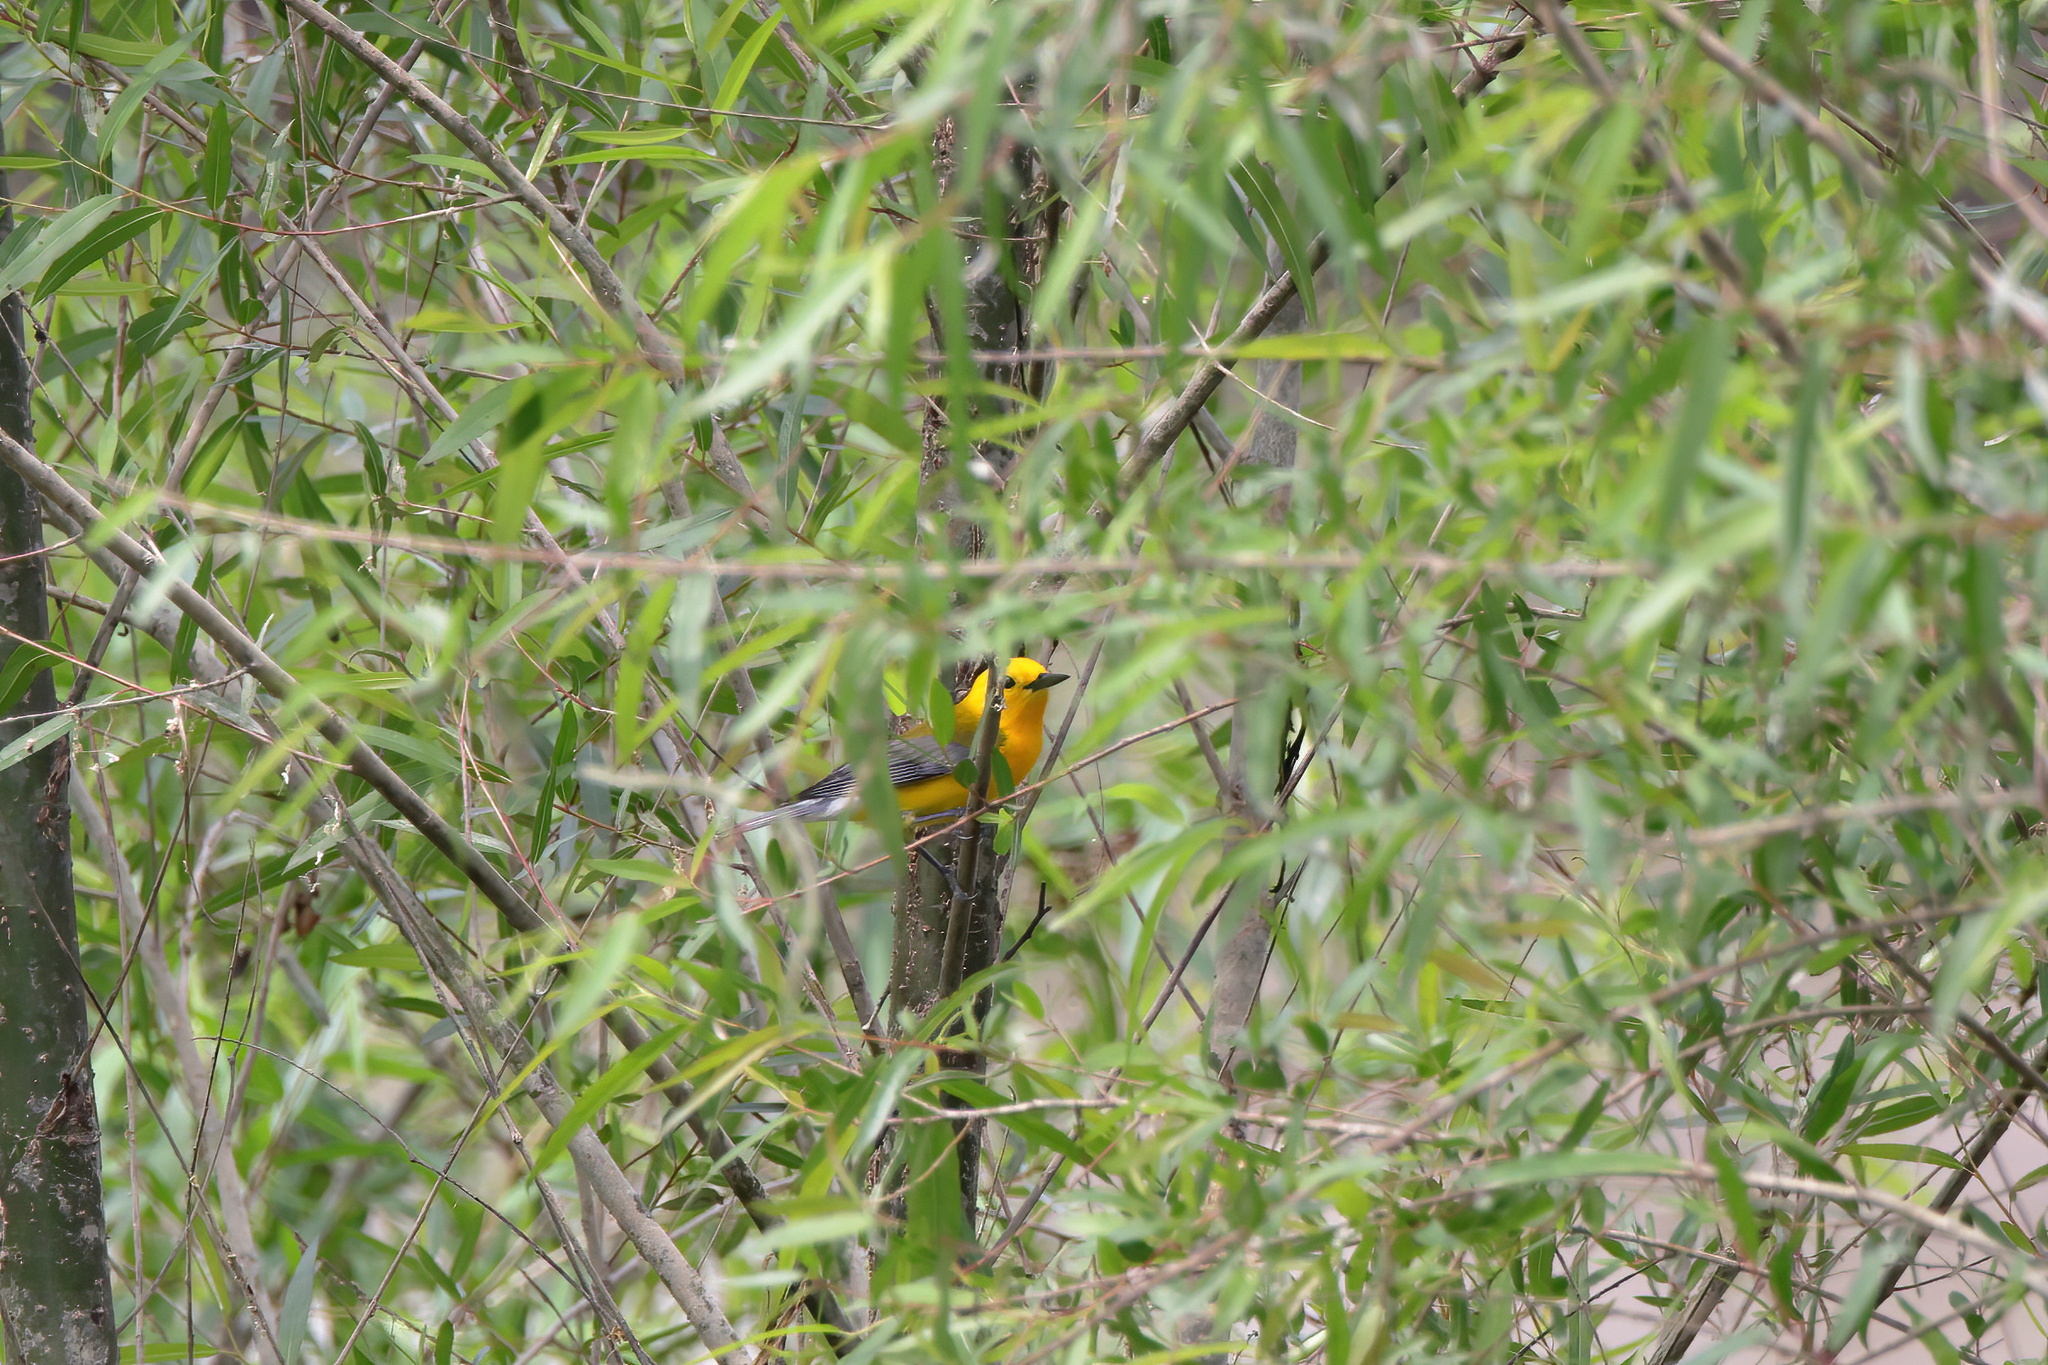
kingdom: Animalia
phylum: Chordata
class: Aves
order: Passeriformes
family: Parulidae
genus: Protonotaria
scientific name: Protonotaria citrea
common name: Prothonotary warbler
